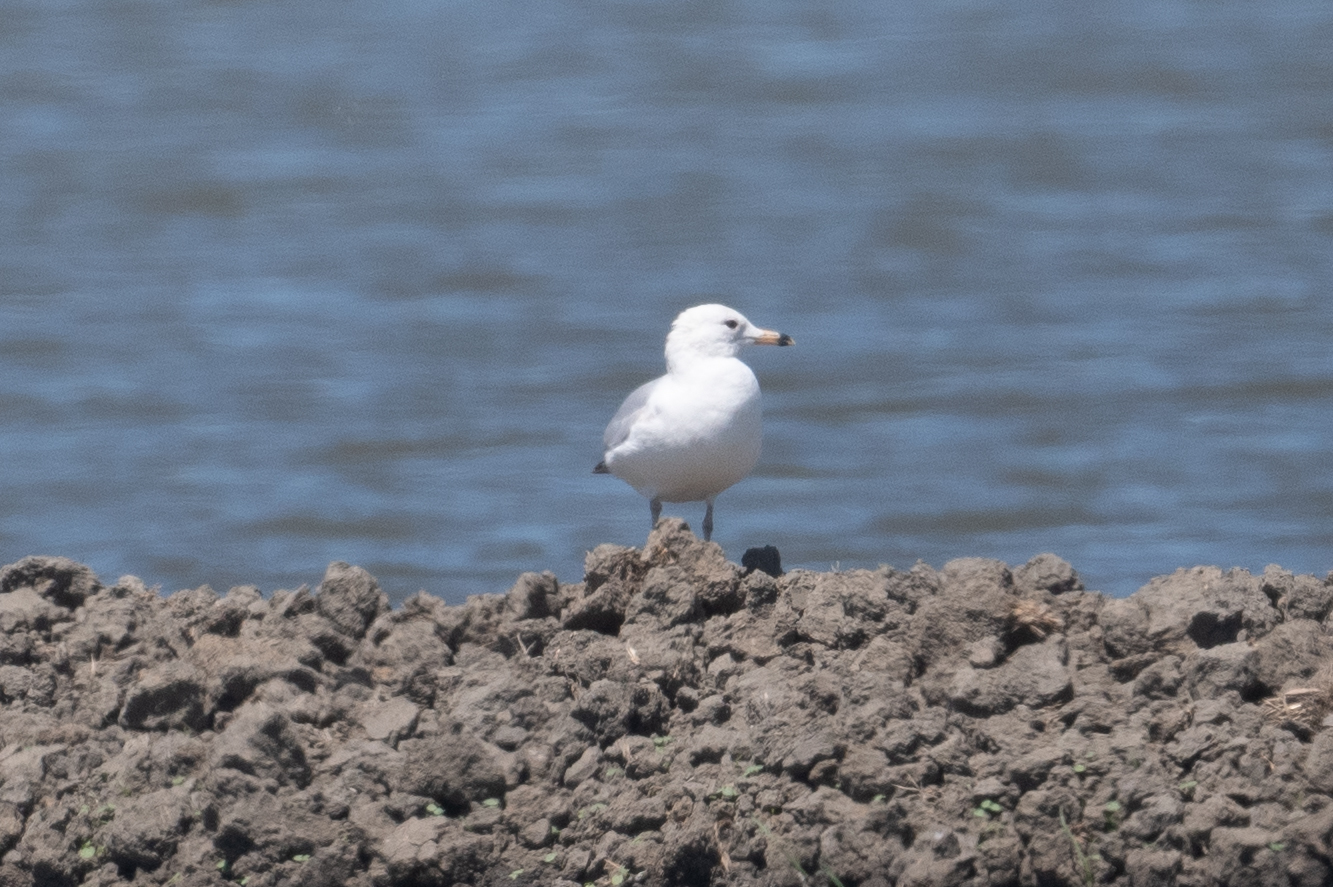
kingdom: Animalia
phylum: Chordata
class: Aves
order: Charadriiformes
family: Laridae
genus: Larus
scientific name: Larus delawarensis
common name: Ring-billed gull
